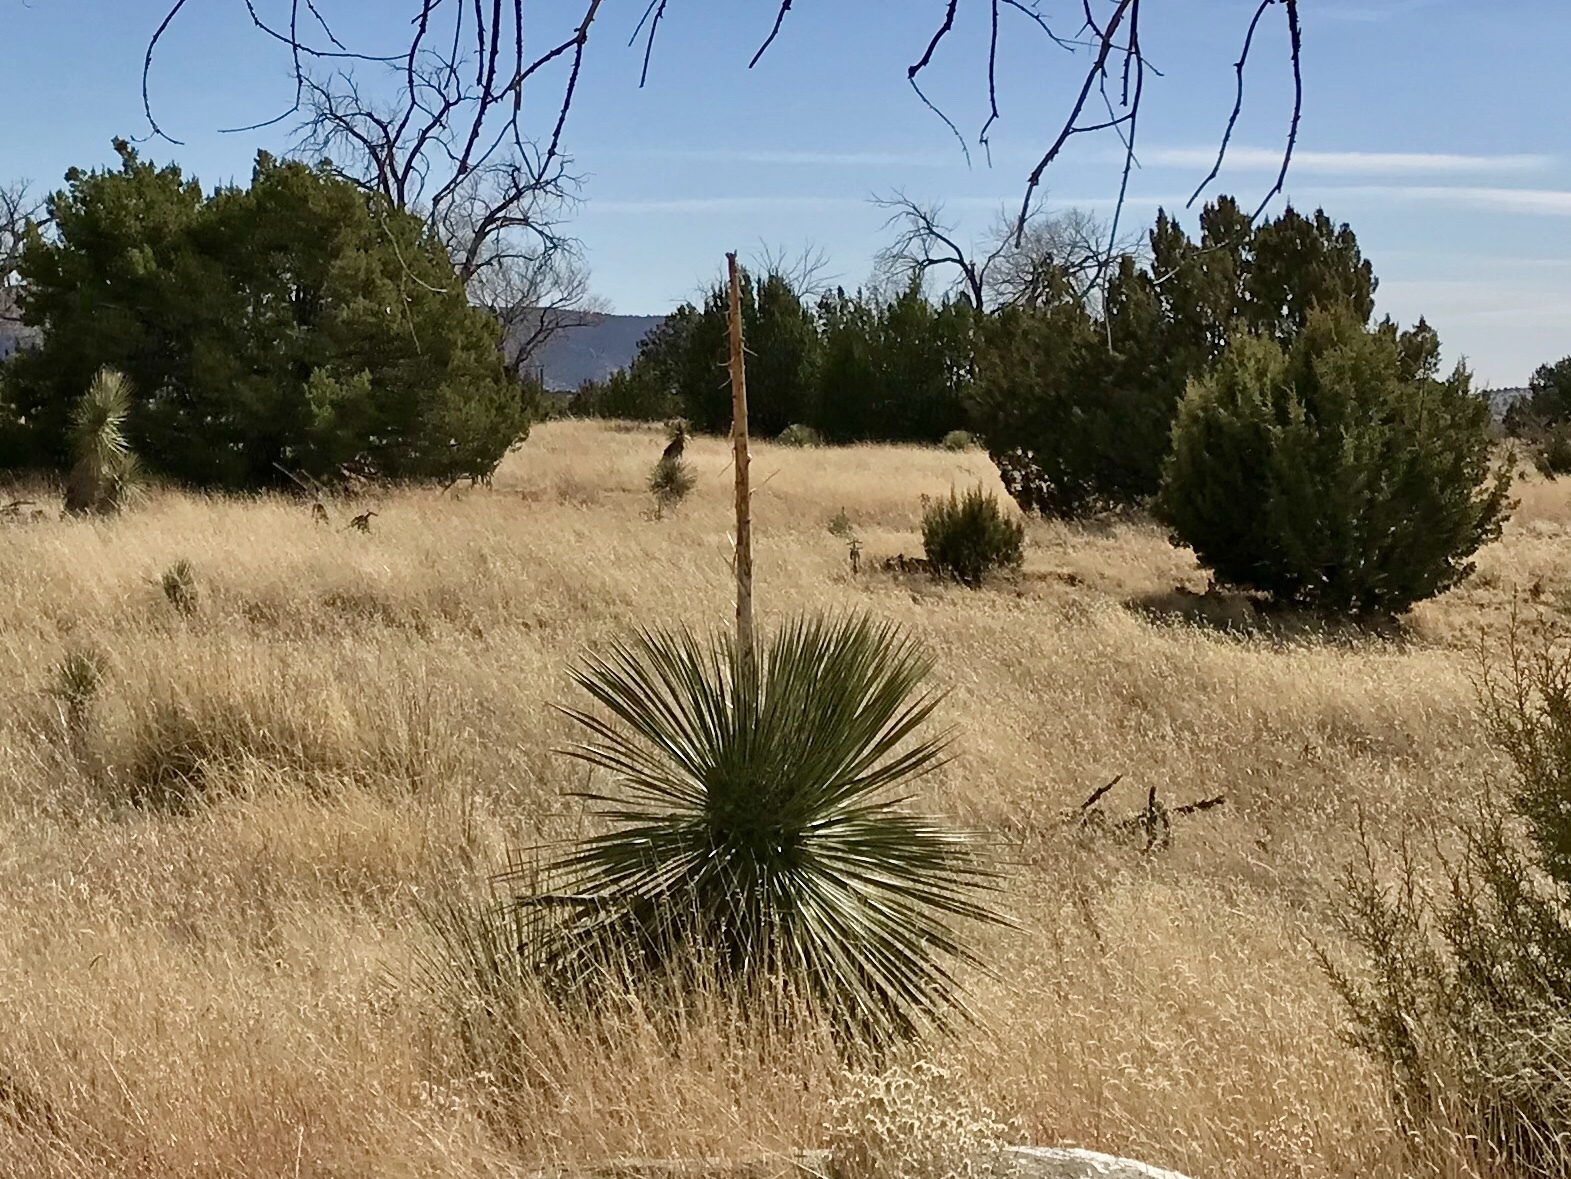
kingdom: Plantae
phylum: Tracheophyta
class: Liliopsida
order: Asparagales
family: Asparagaceae
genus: Yucca
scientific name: Yucca elata
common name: Palmella
